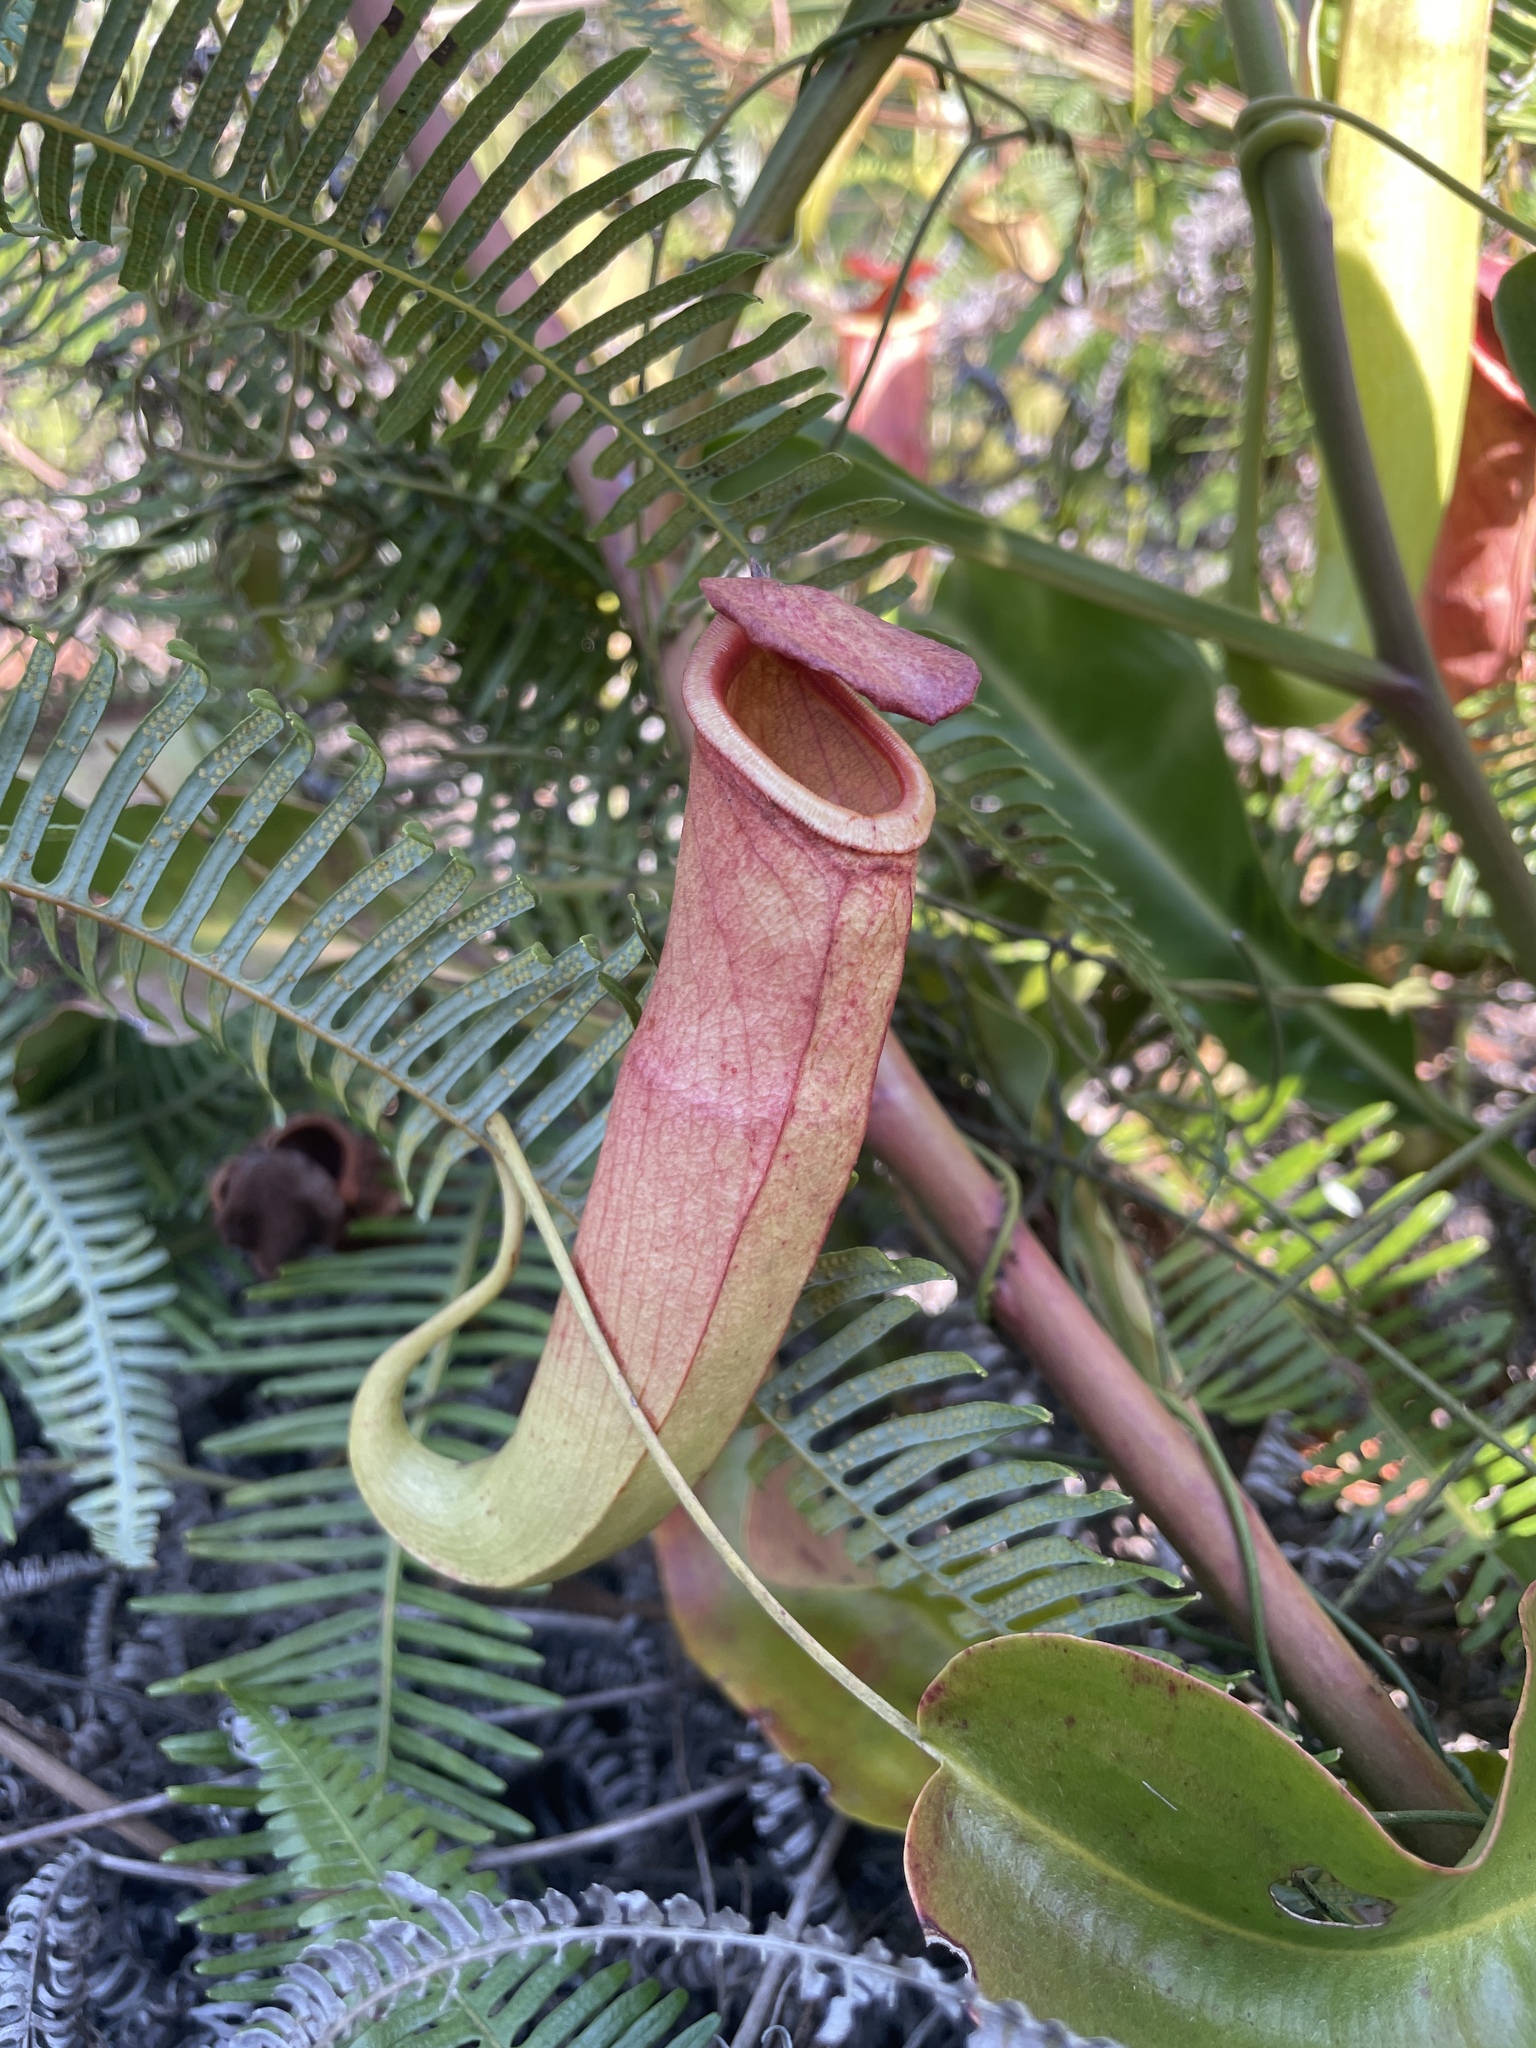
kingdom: Plantae
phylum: Tracheophyta
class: Magnoliopsida
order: Caryophyllales
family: Nepenthaceae
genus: Nepenthes
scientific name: Nepenthes mirabilis
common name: Tropical pitcherplant
